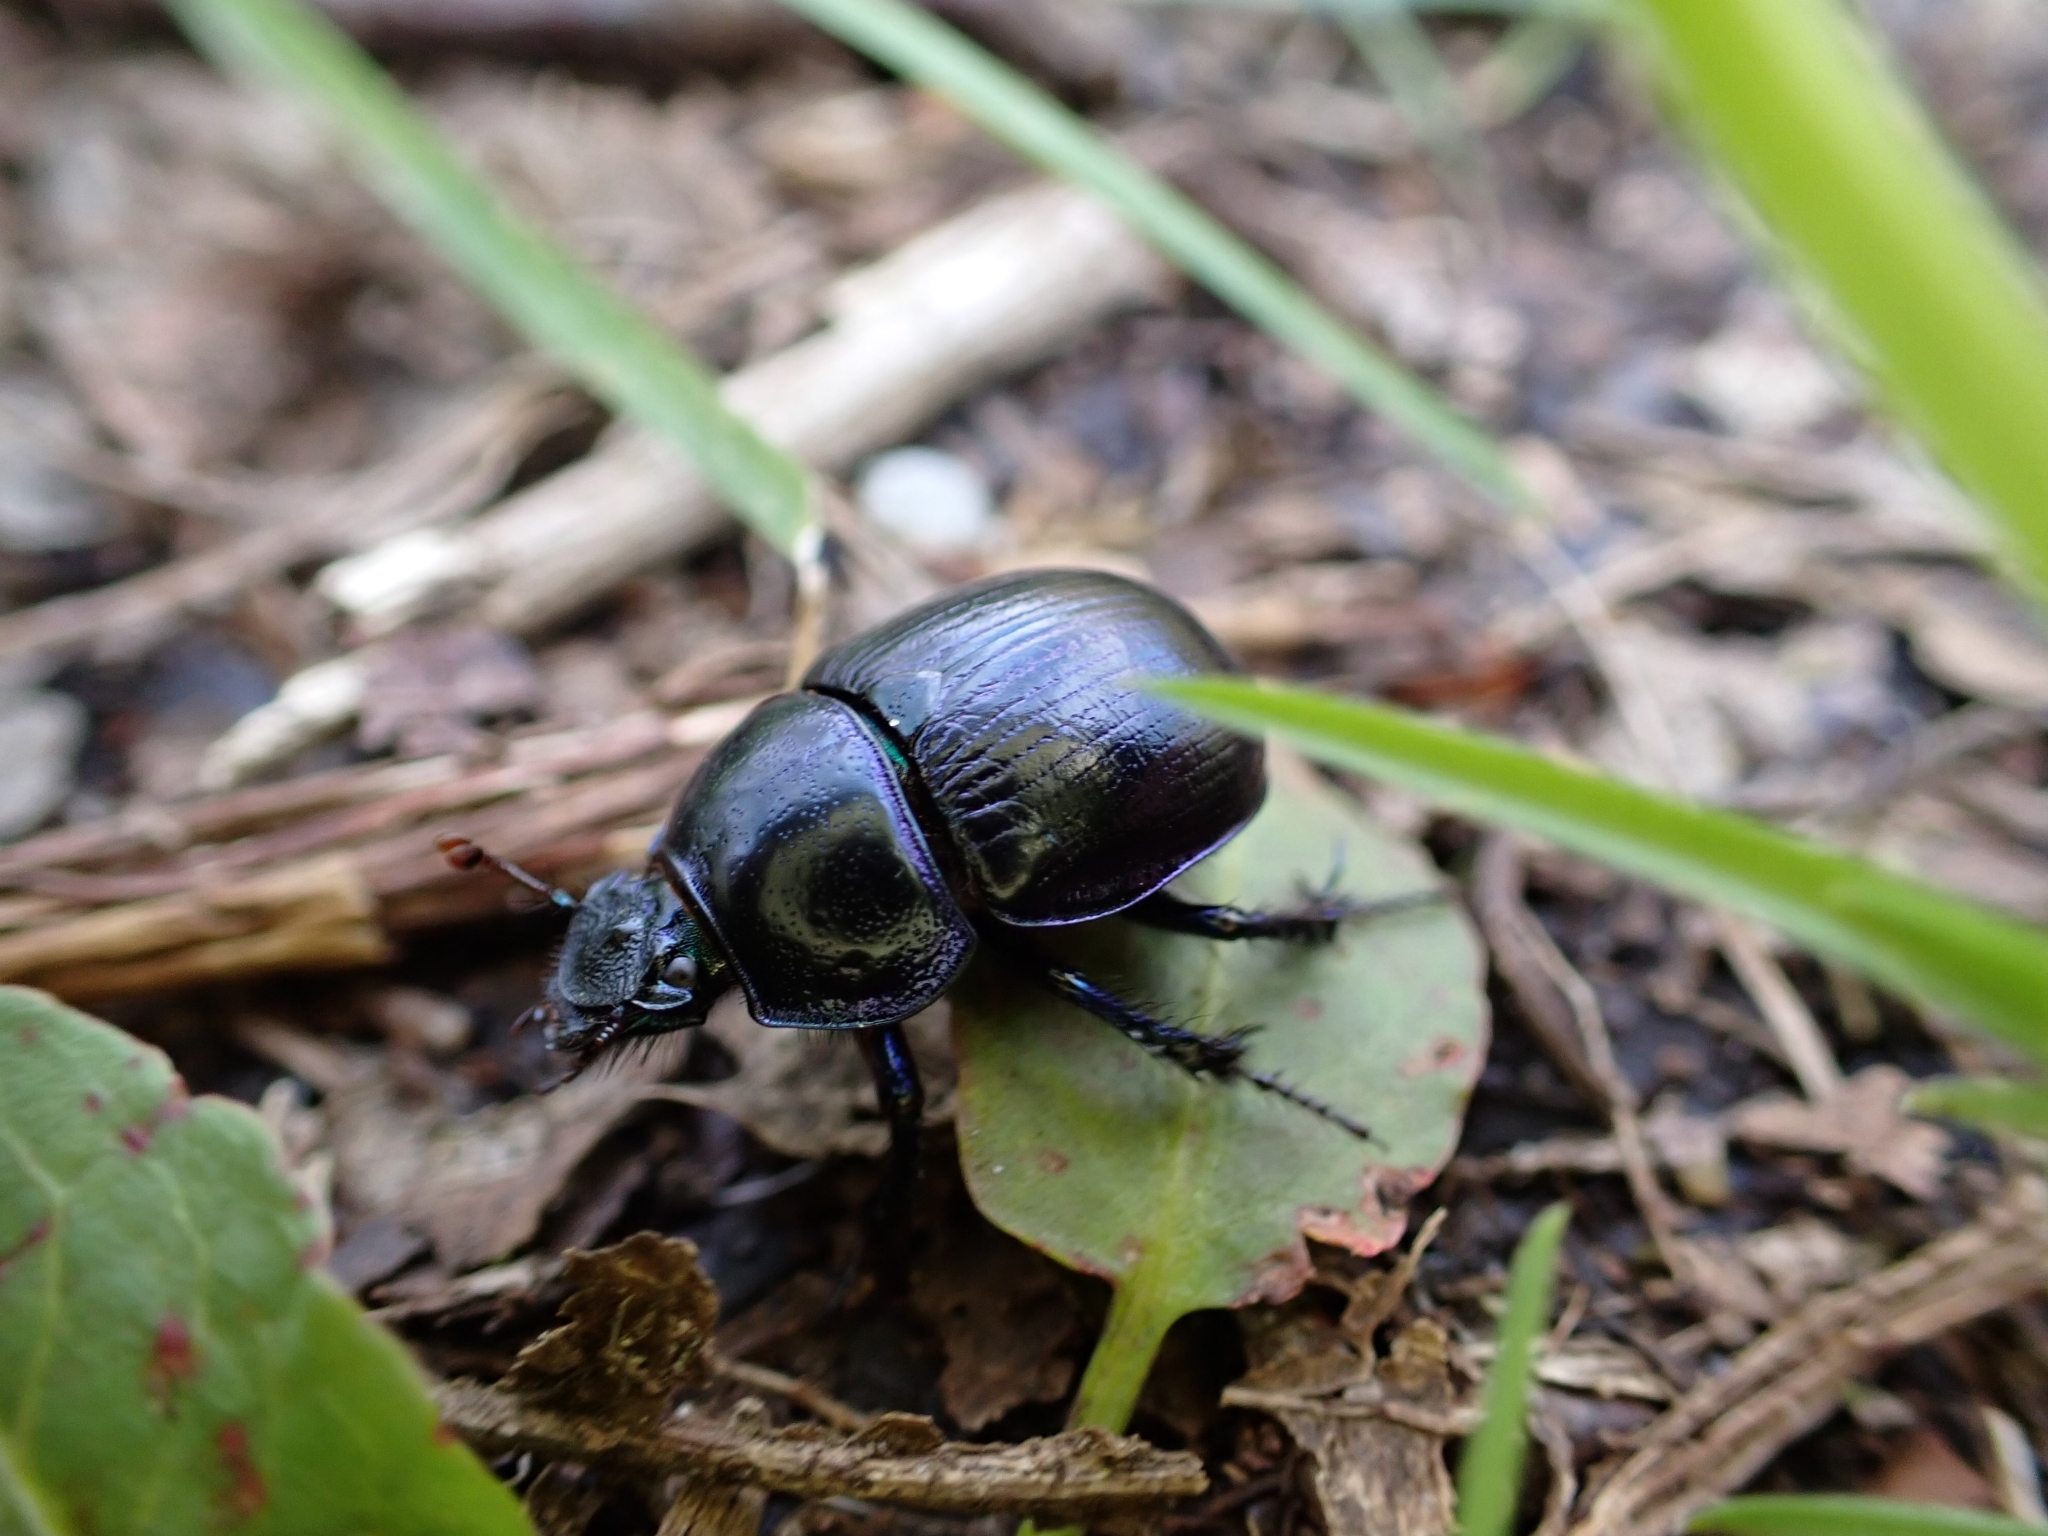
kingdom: Animalia
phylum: Arthropoda
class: Insecta
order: Coleoptera
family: Geotrupidae
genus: Anoplotrupes
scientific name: Anoplotrupes stercorosus
